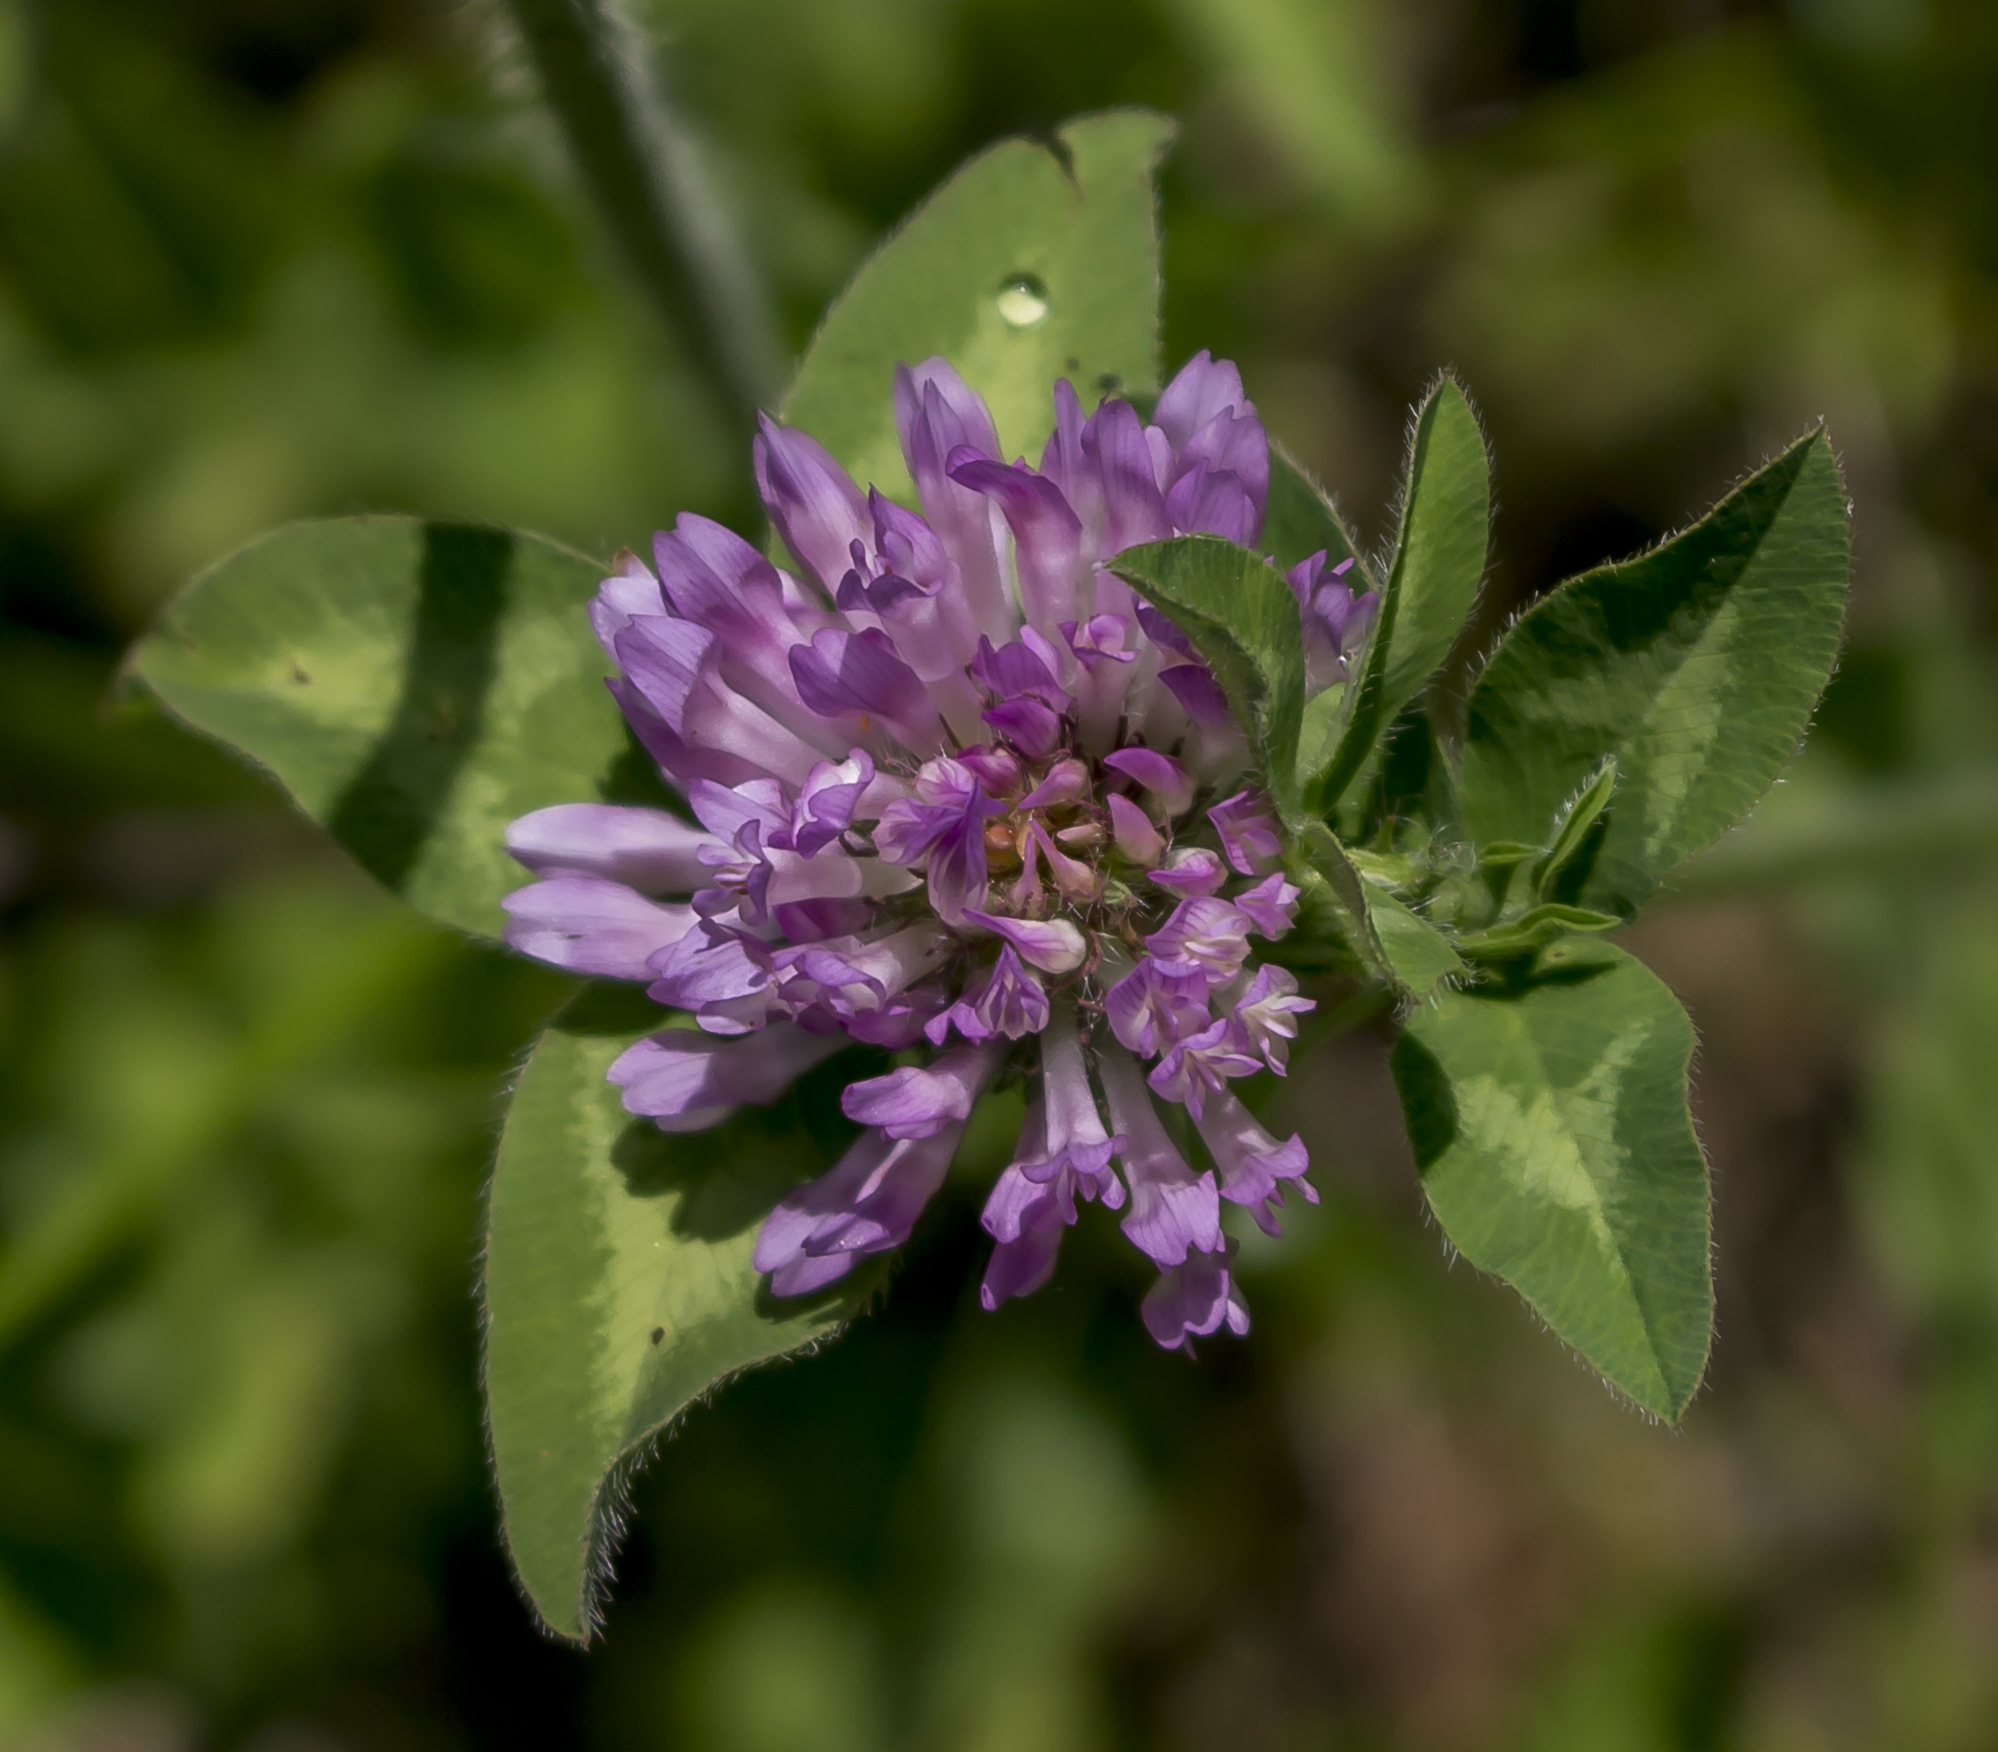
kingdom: Plantae
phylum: Tracheophyta
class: Magnoliopsida
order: Fabales
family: Fabaceae
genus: Trifolium
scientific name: Trifolium pratense
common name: Red clover
